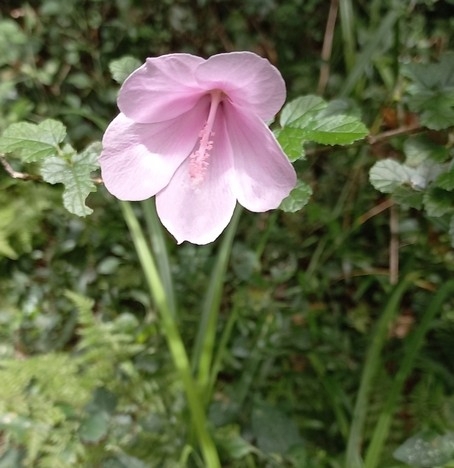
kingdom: Plantae
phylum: Tracheophyta
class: Magnoliopsida
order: Malvales
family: Malvaceae
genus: Hibiscus
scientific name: Hibiscus pedunculatus
